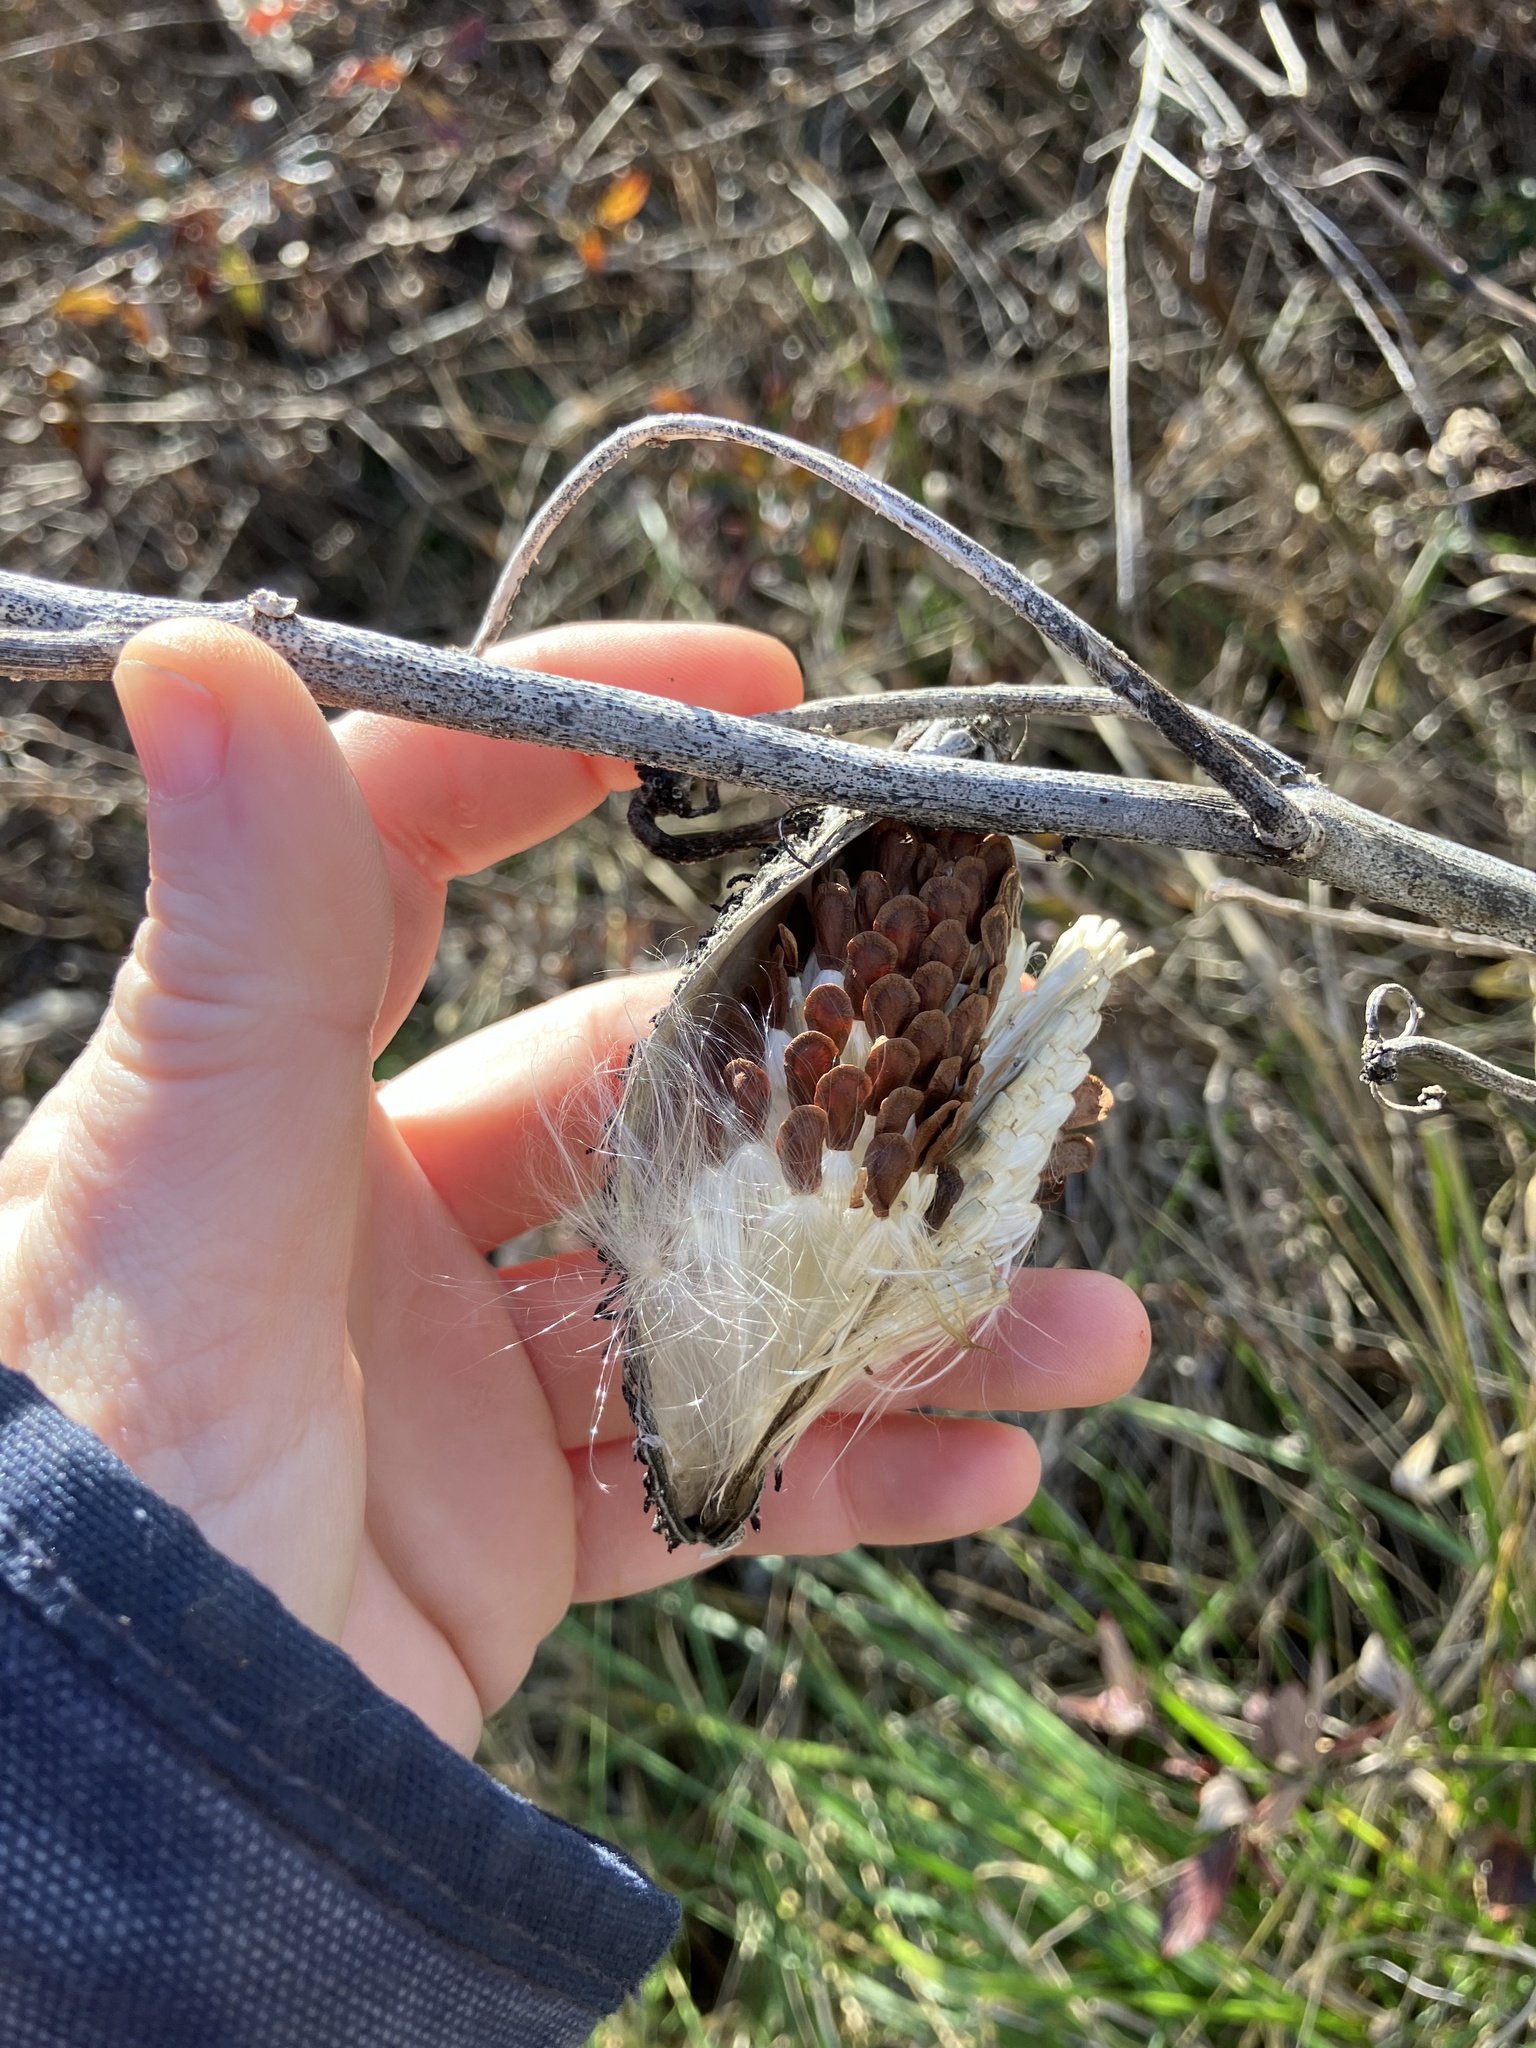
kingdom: Plantae
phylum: Tracheophyta
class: Magnoliopsida
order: Gentianales
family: Apocynaceae
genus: Asclepias
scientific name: Asclepias syriaca
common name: Common milkweed
